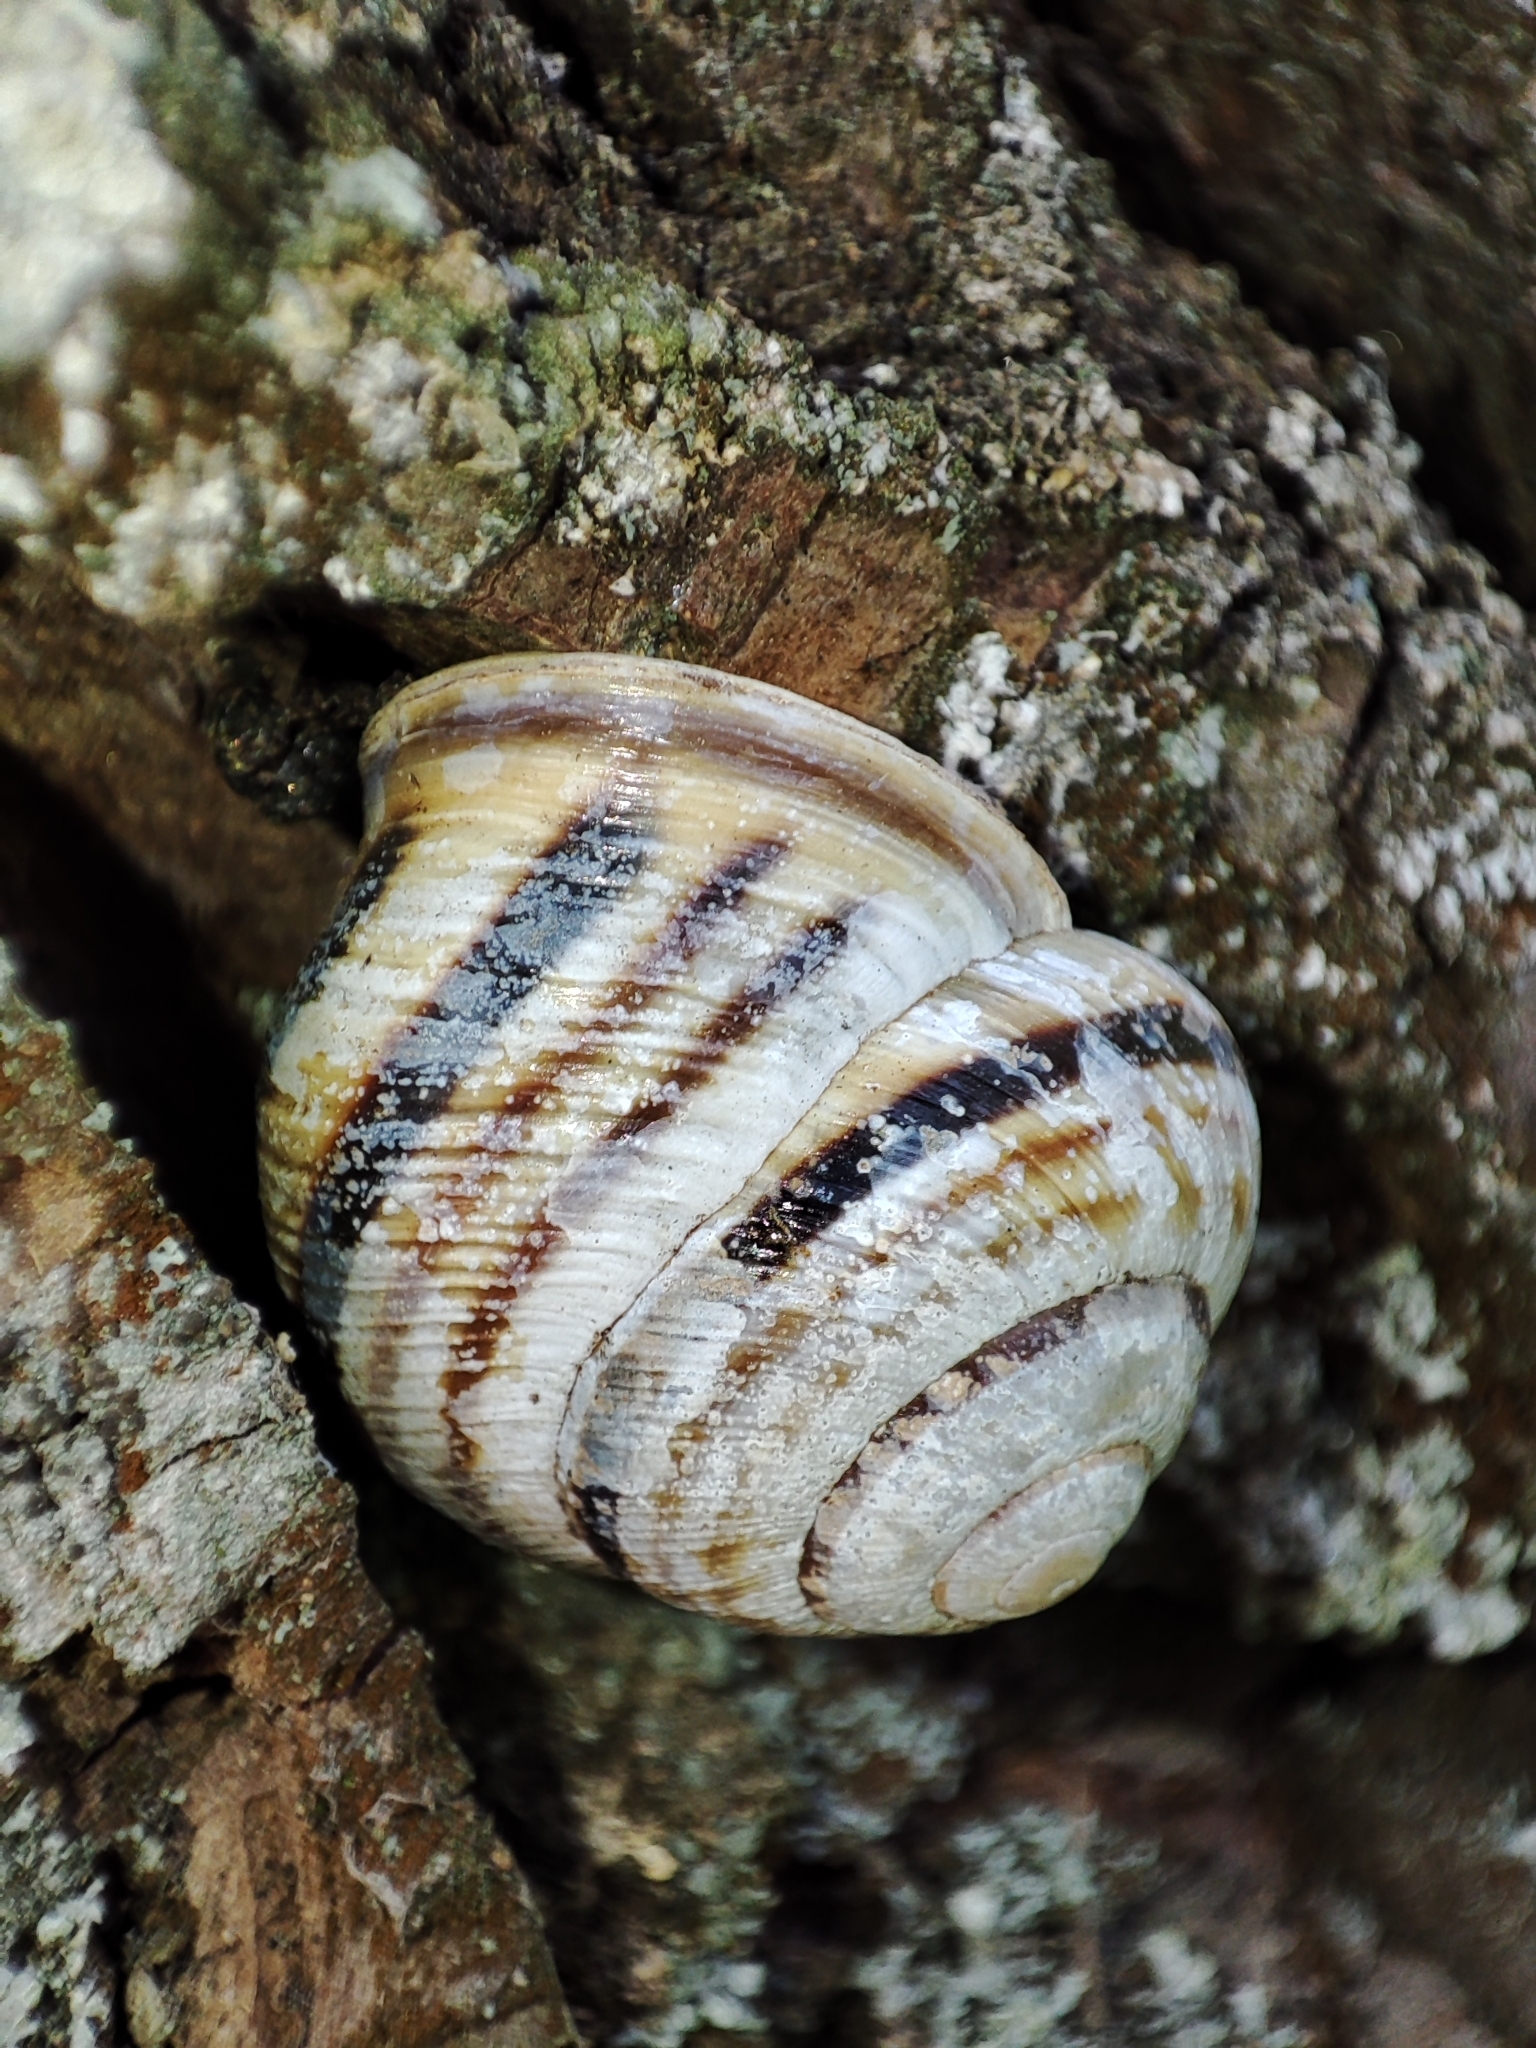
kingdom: Animalia
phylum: Mollusca
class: Gastropoda
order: Stylommatophora
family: Helicidae
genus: Caucasotachea
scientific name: Caucasotachea vindobonensis
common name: European helicid land snail
